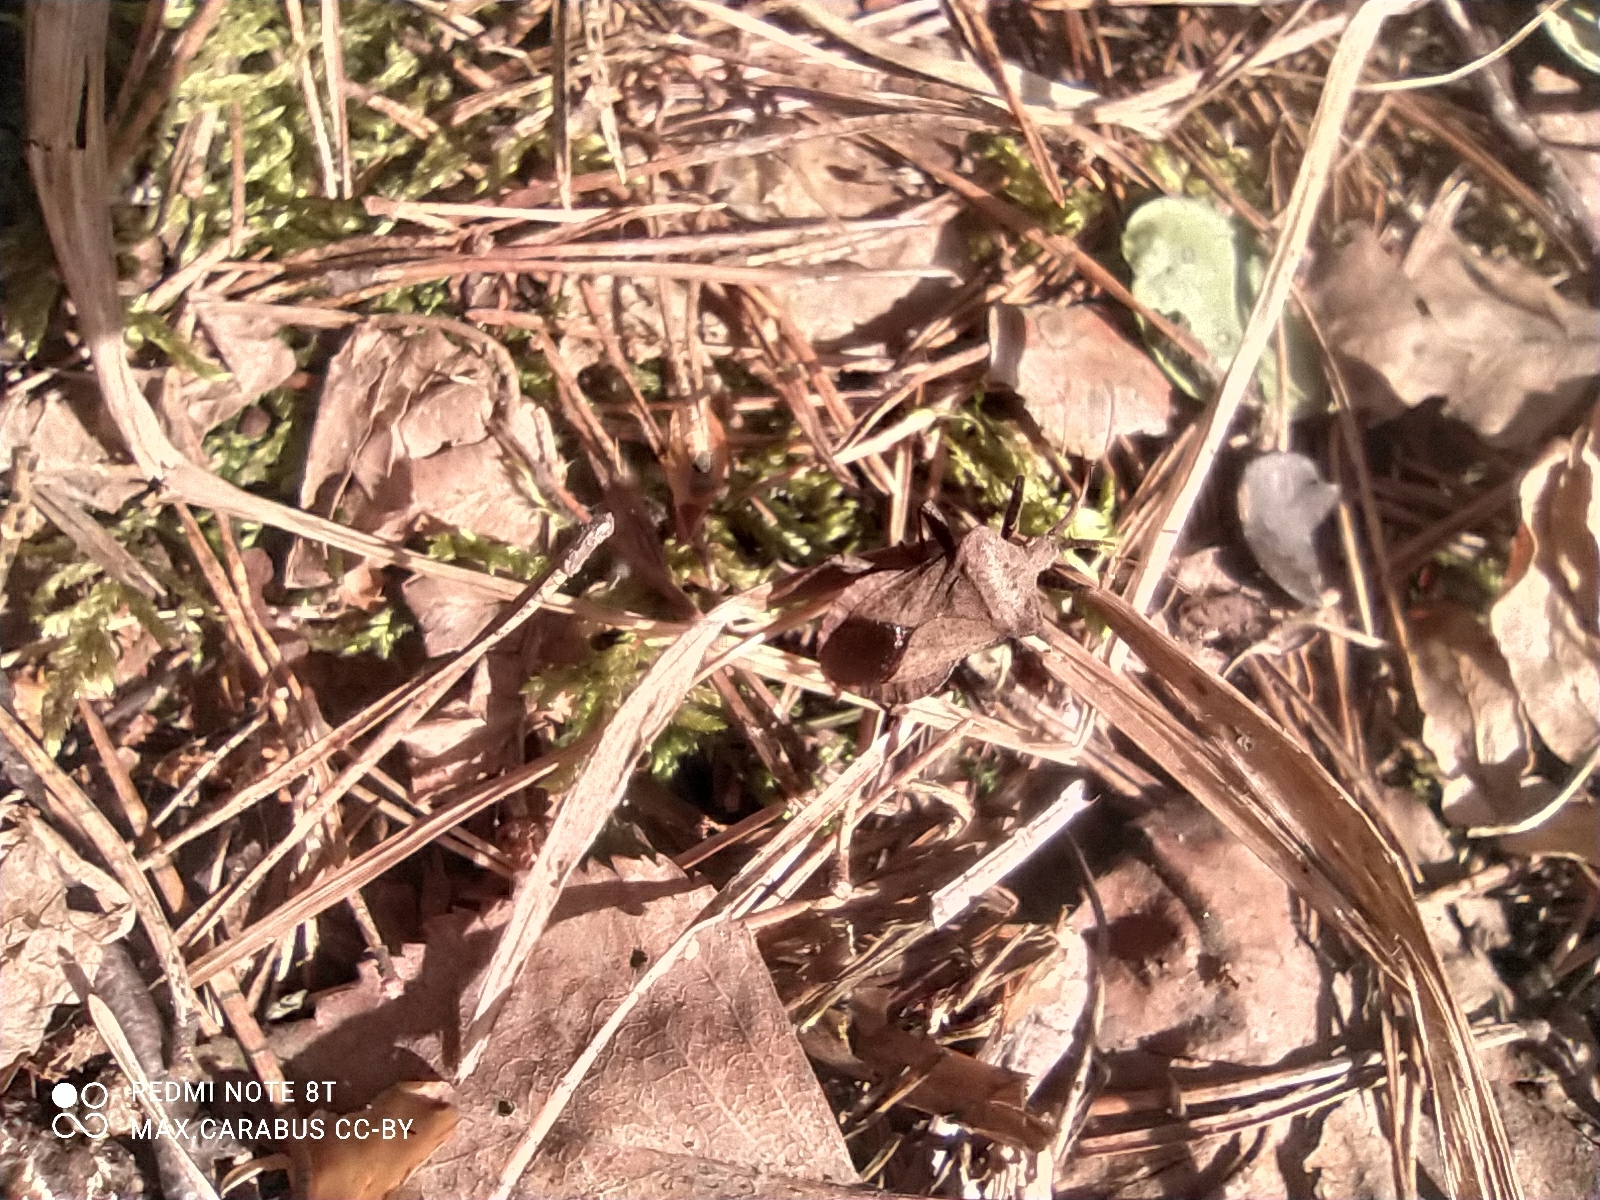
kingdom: Animalia
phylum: Arthropoda
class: Insecta
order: Hemiptera
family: Coreidae
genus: Coreus
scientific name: Coreus marginatus
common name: Dock bug
